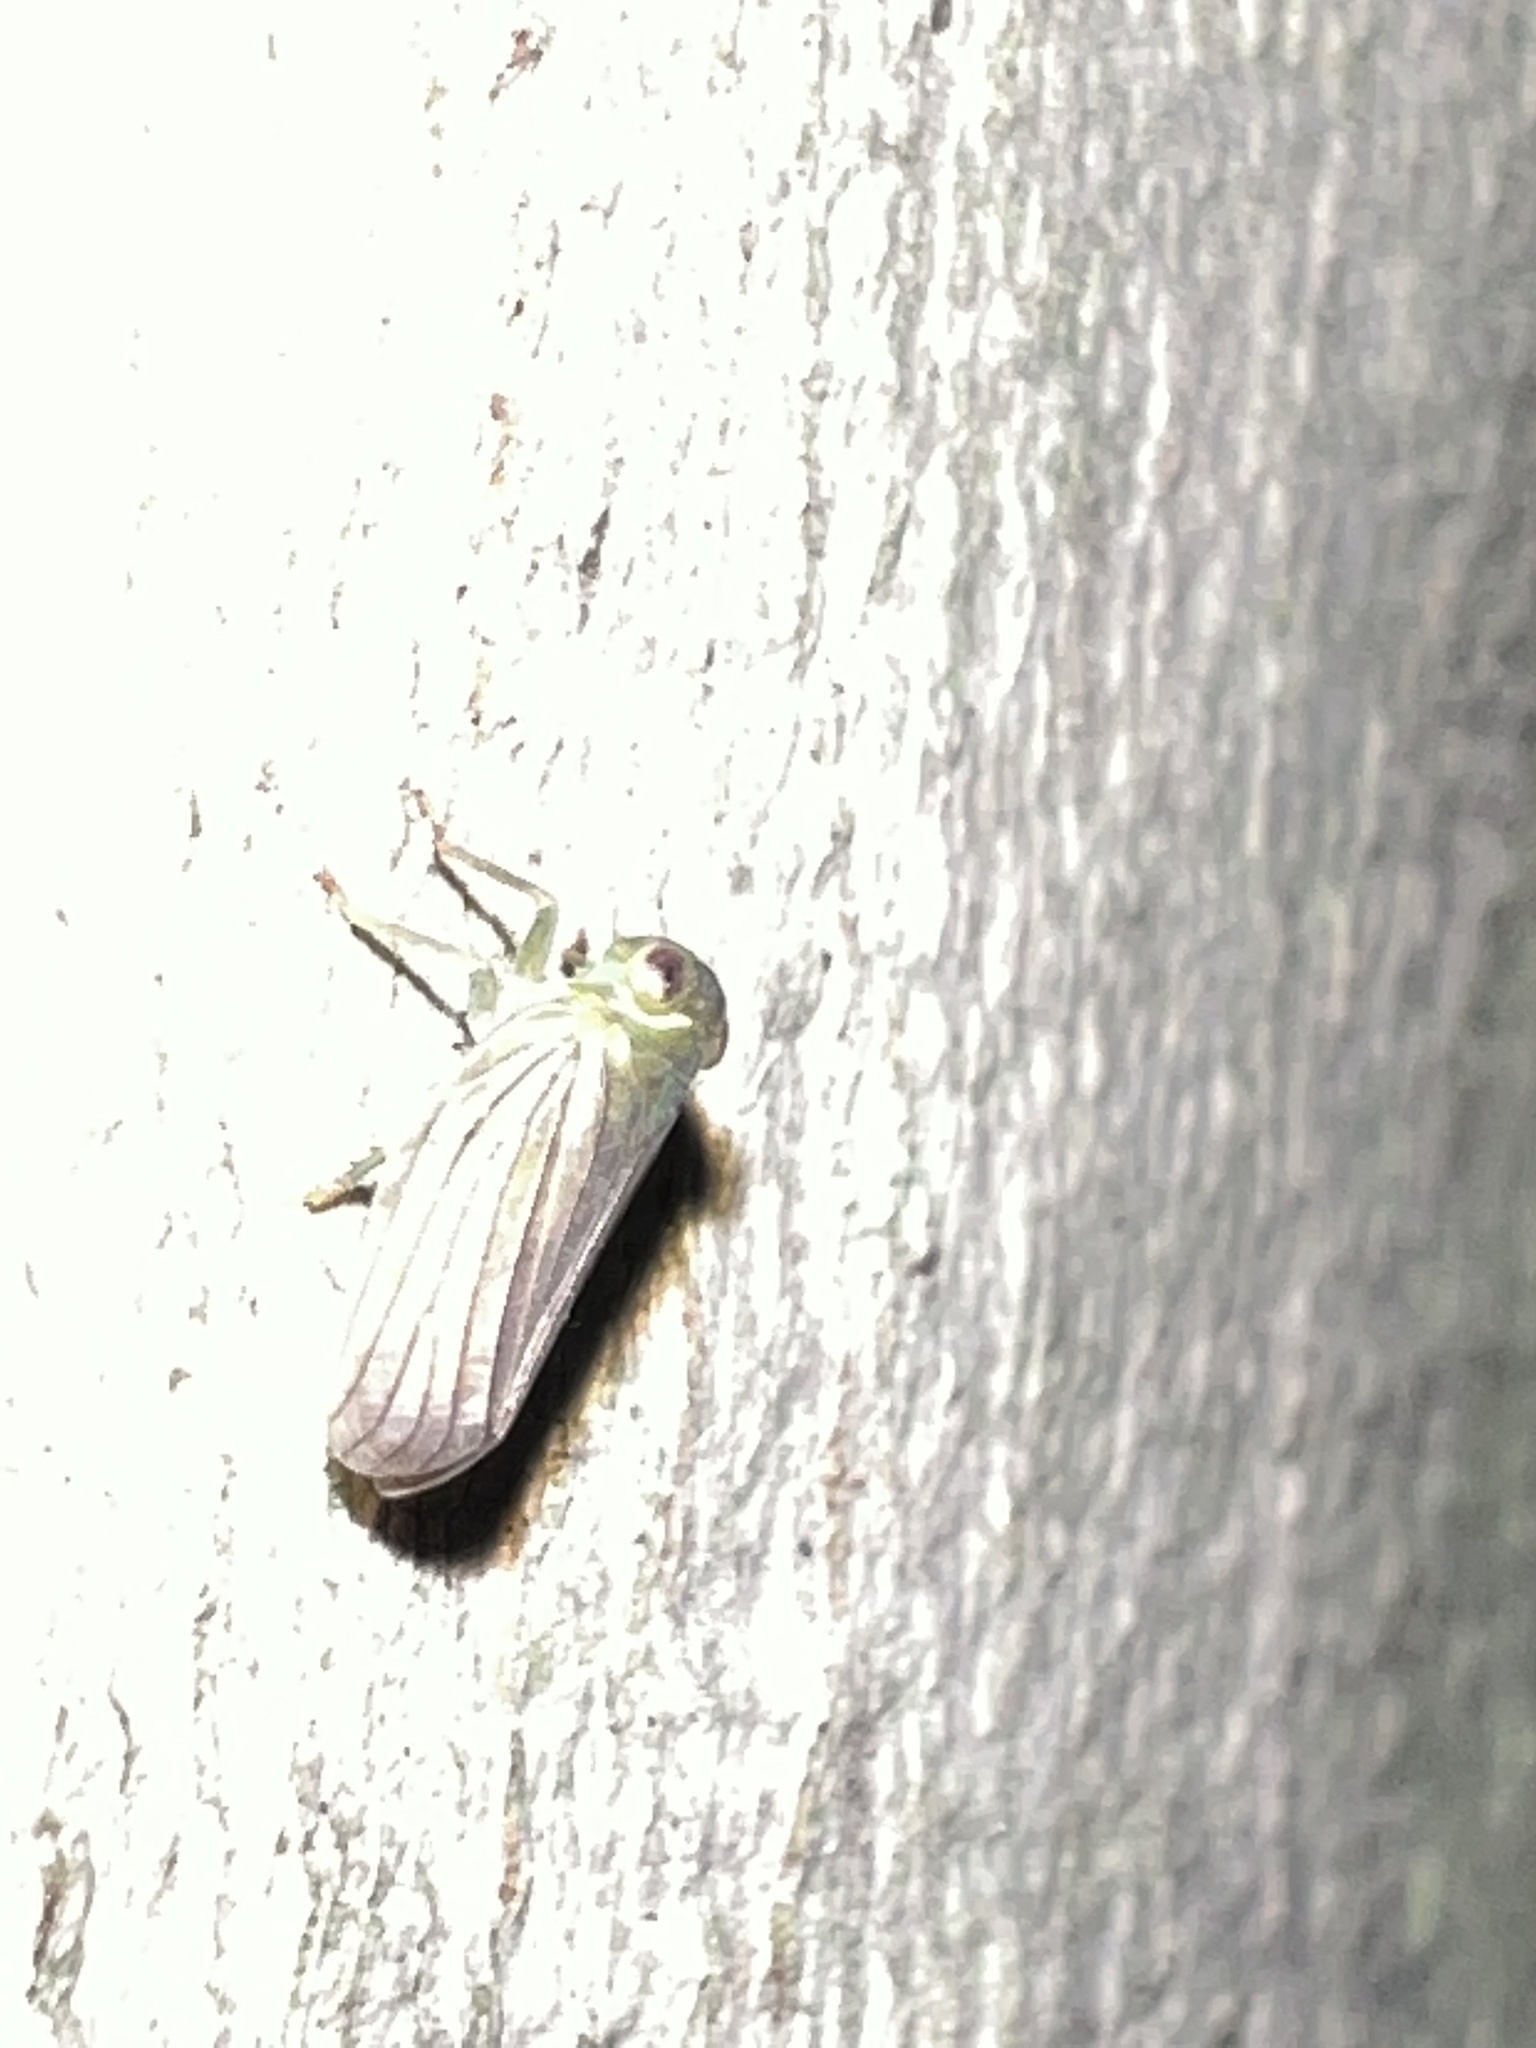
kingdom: Animalia
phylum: Arthropoda
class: Insecta
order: Hemiptera
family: Issidae
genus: Aplos
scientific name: Aplos simplex
